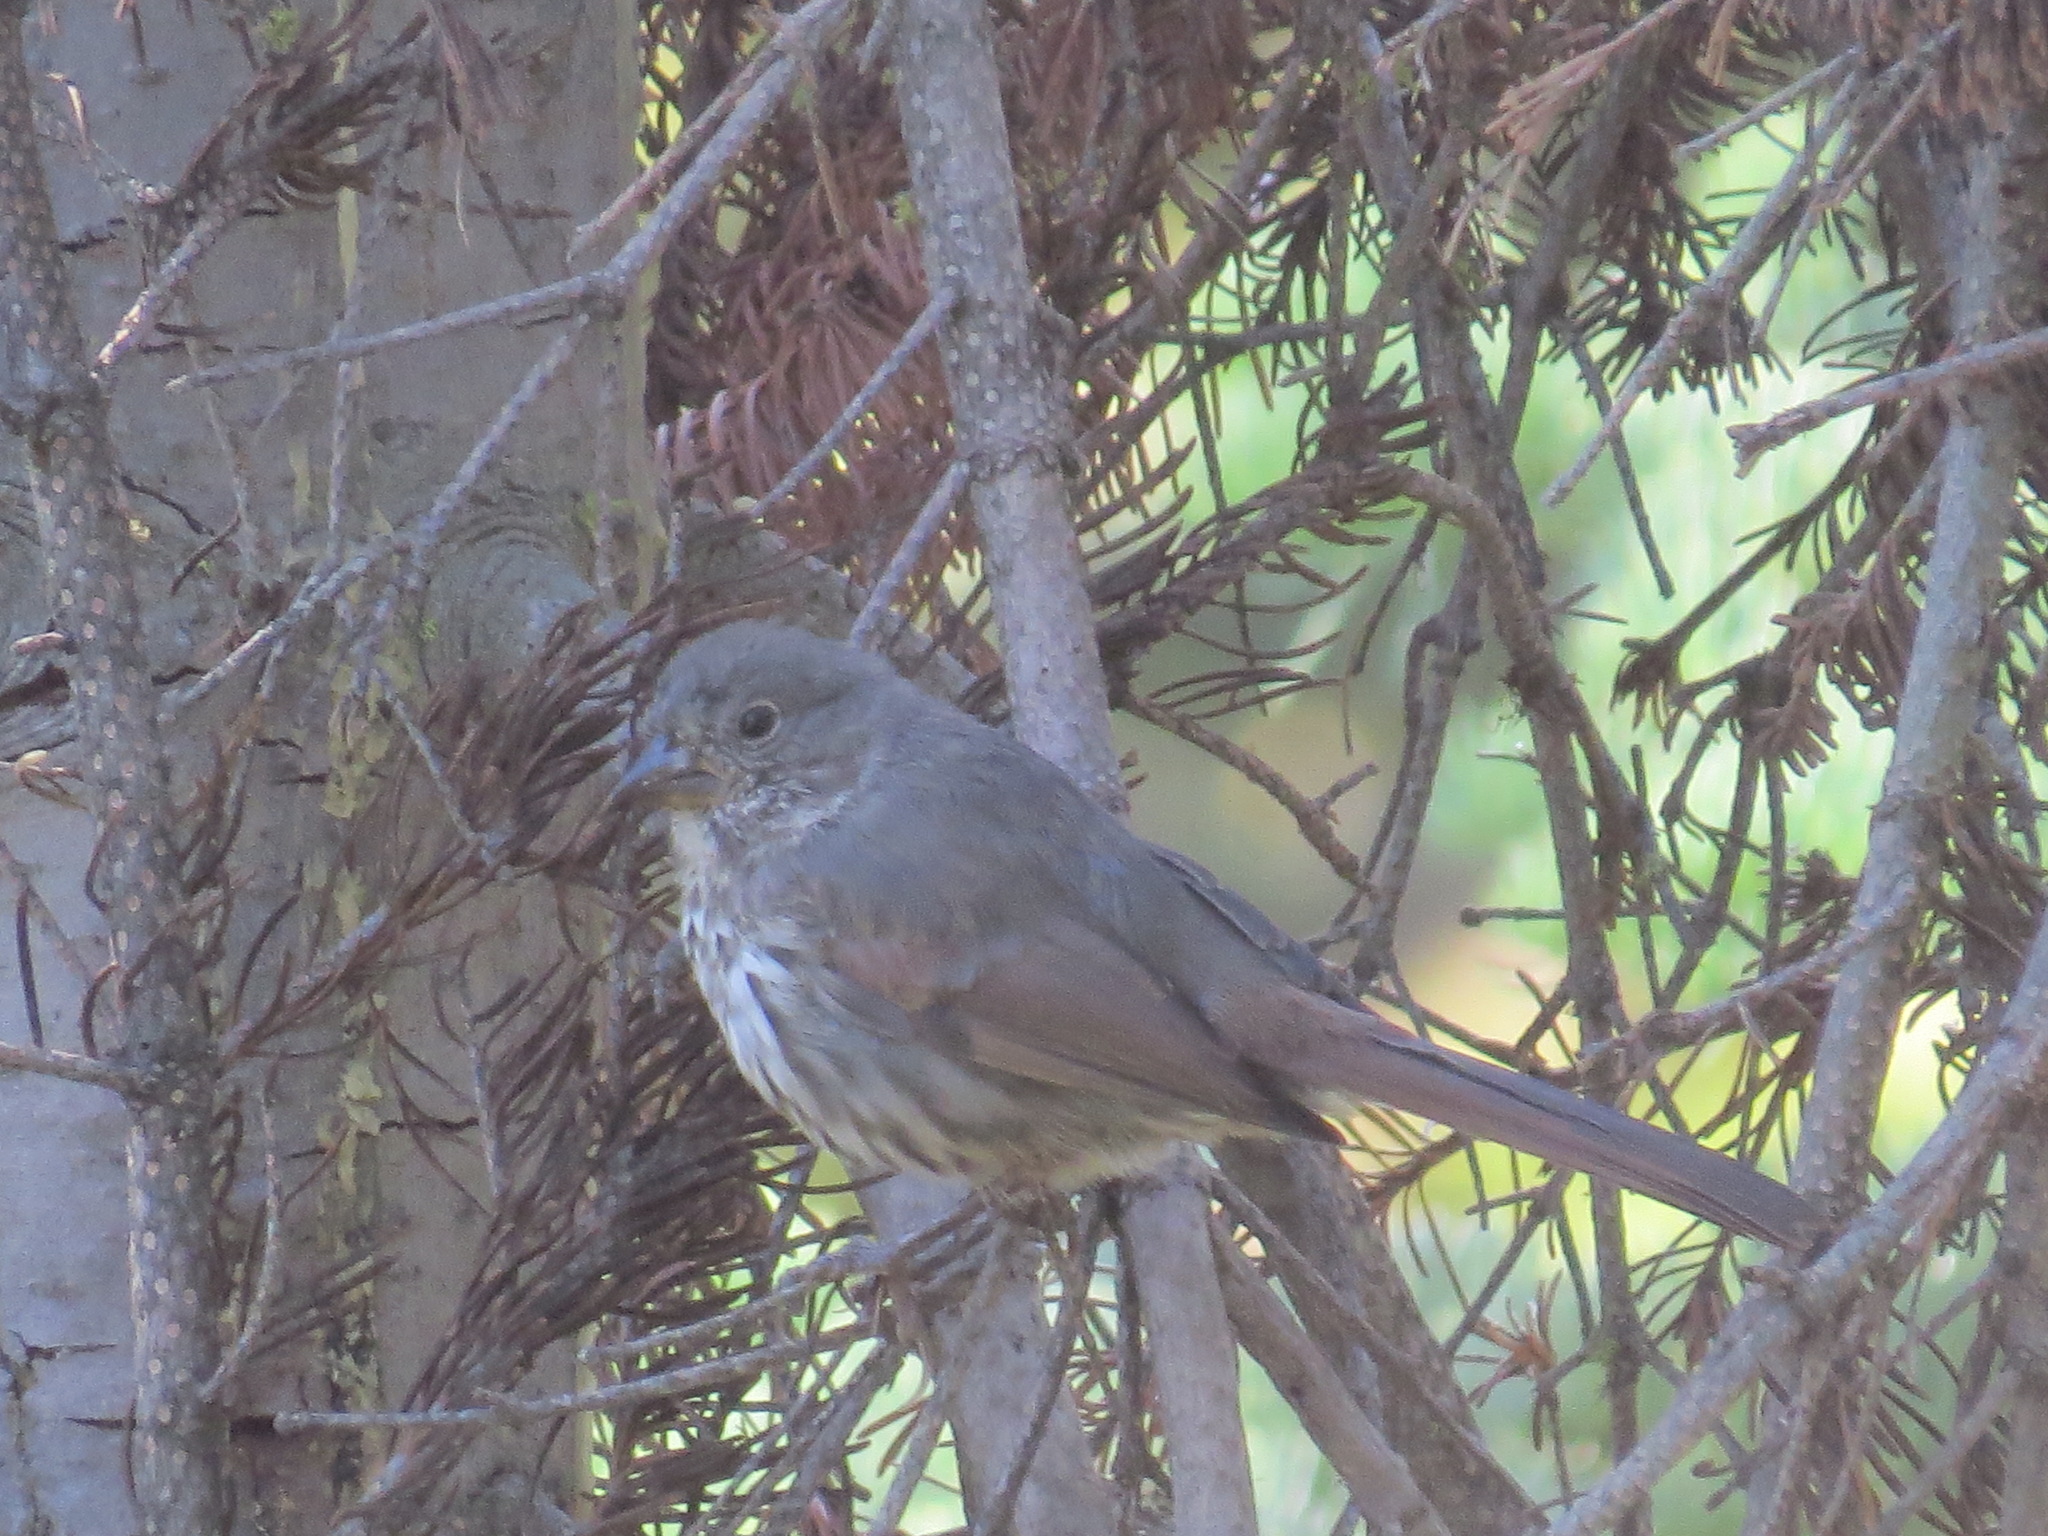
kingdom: Animalia
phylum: Chordata
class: Aves
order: Passeriformes
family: Passerellidae
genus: Passerella
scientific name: Passerella iliaca
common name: Fox sparrow
